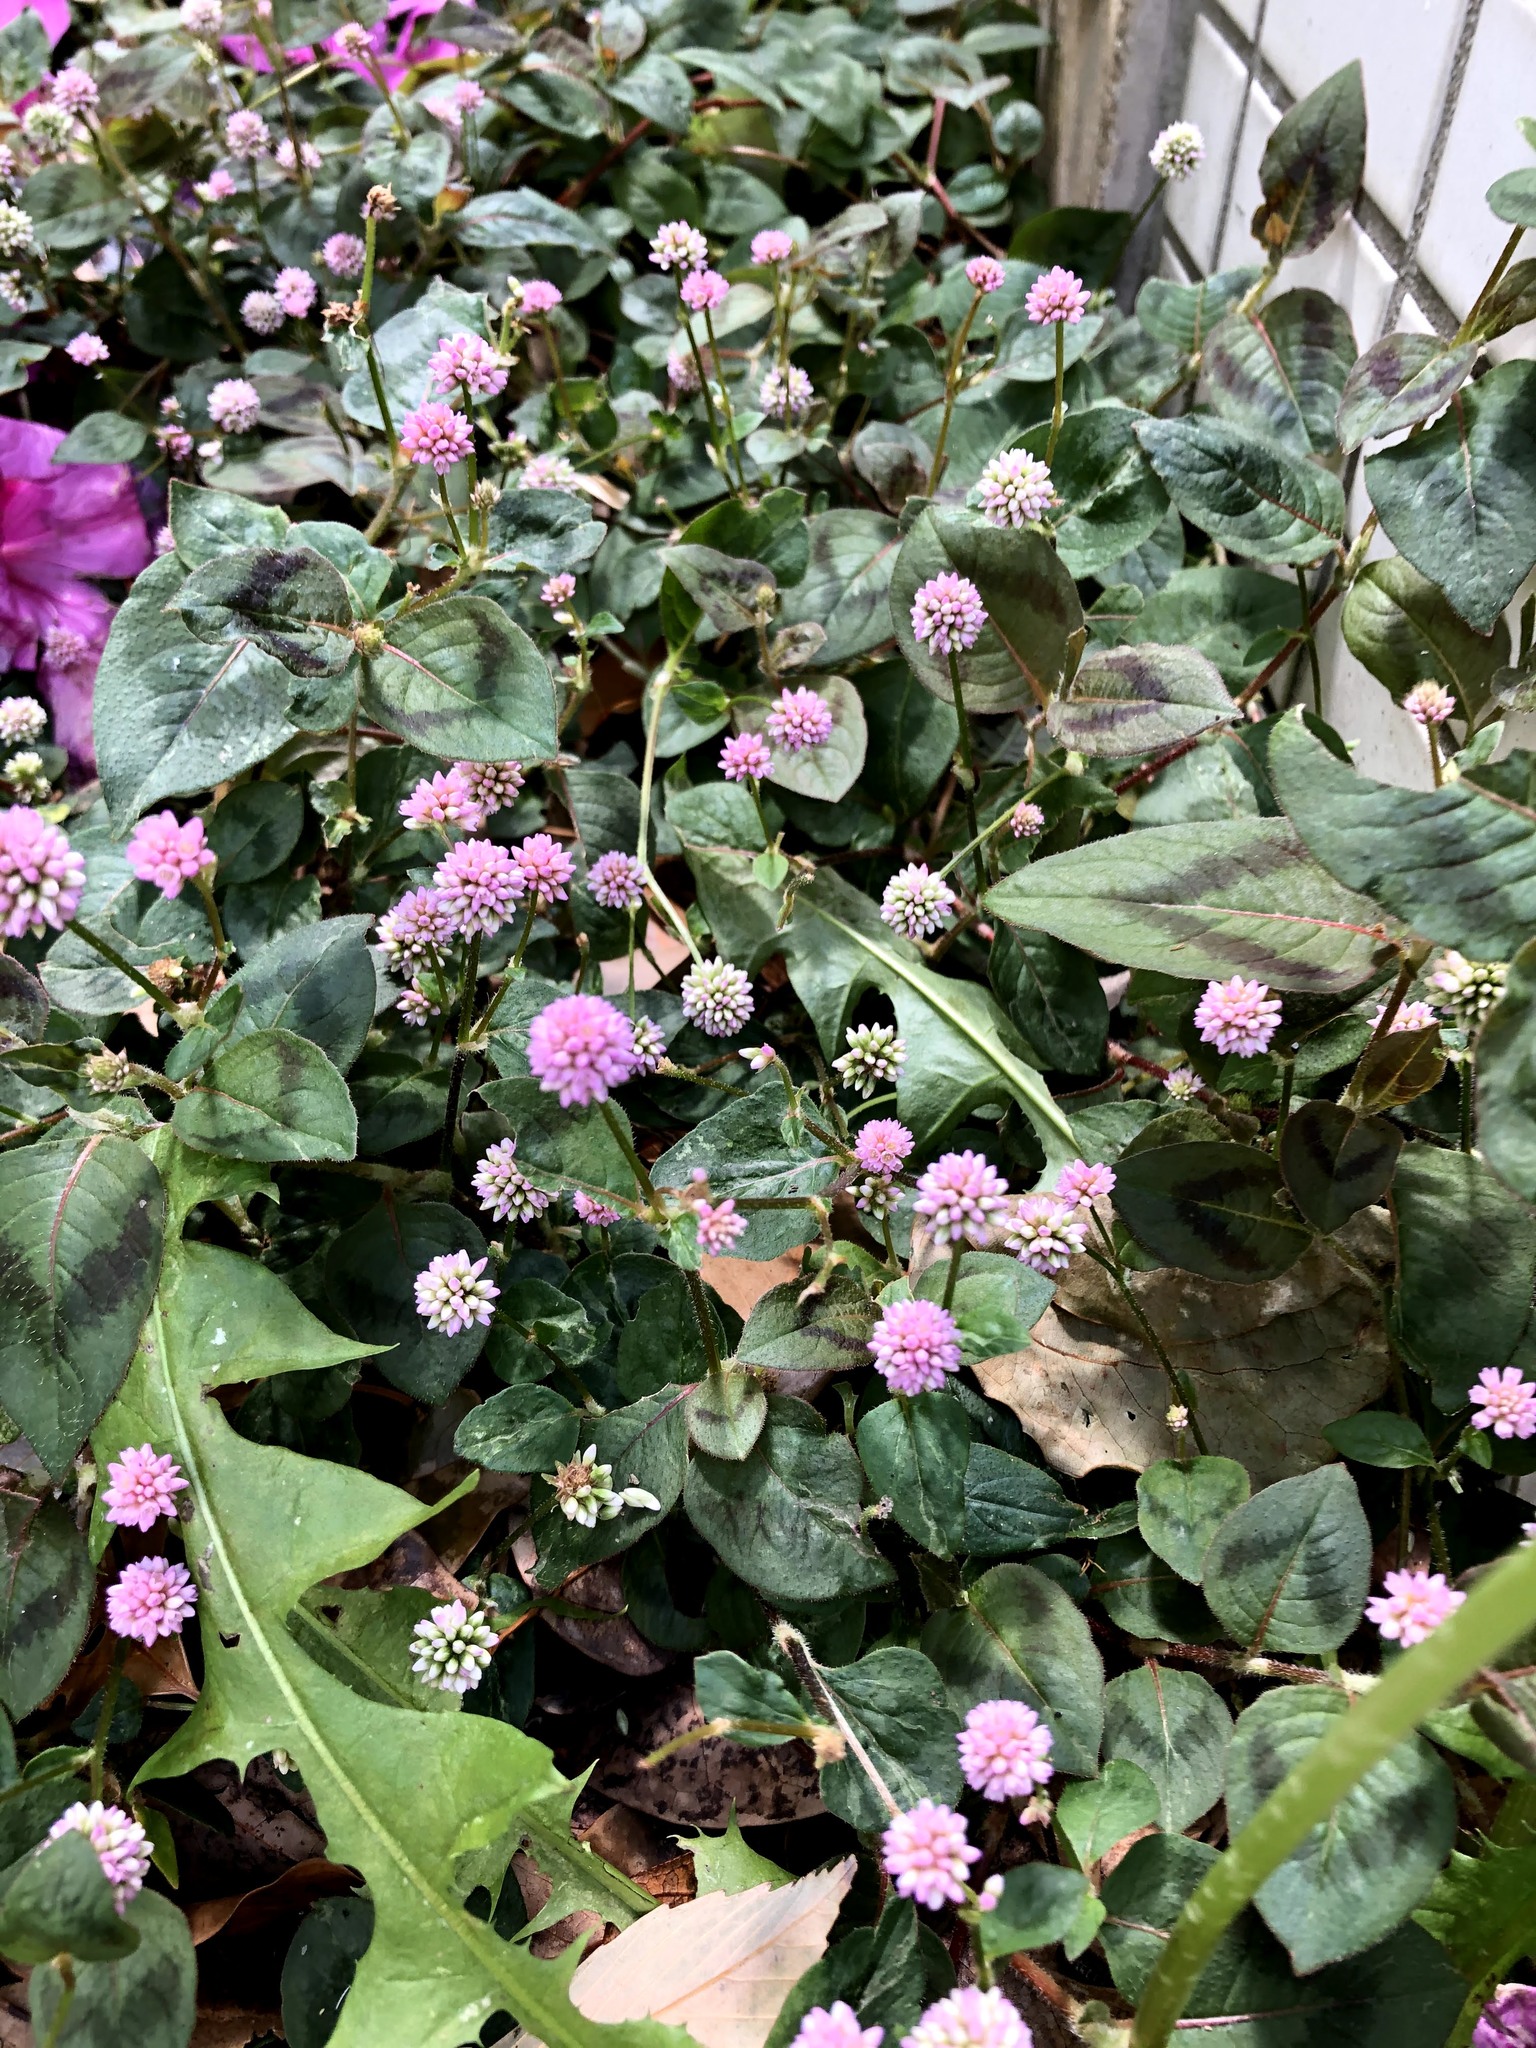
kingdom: Plantae
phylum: Tracheophyta
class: Magnoliopsida
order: Caryophyllales
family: Polygonaceae
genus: Persicaria
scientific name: Persicaria capitata
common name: Pinkhead smartweed
